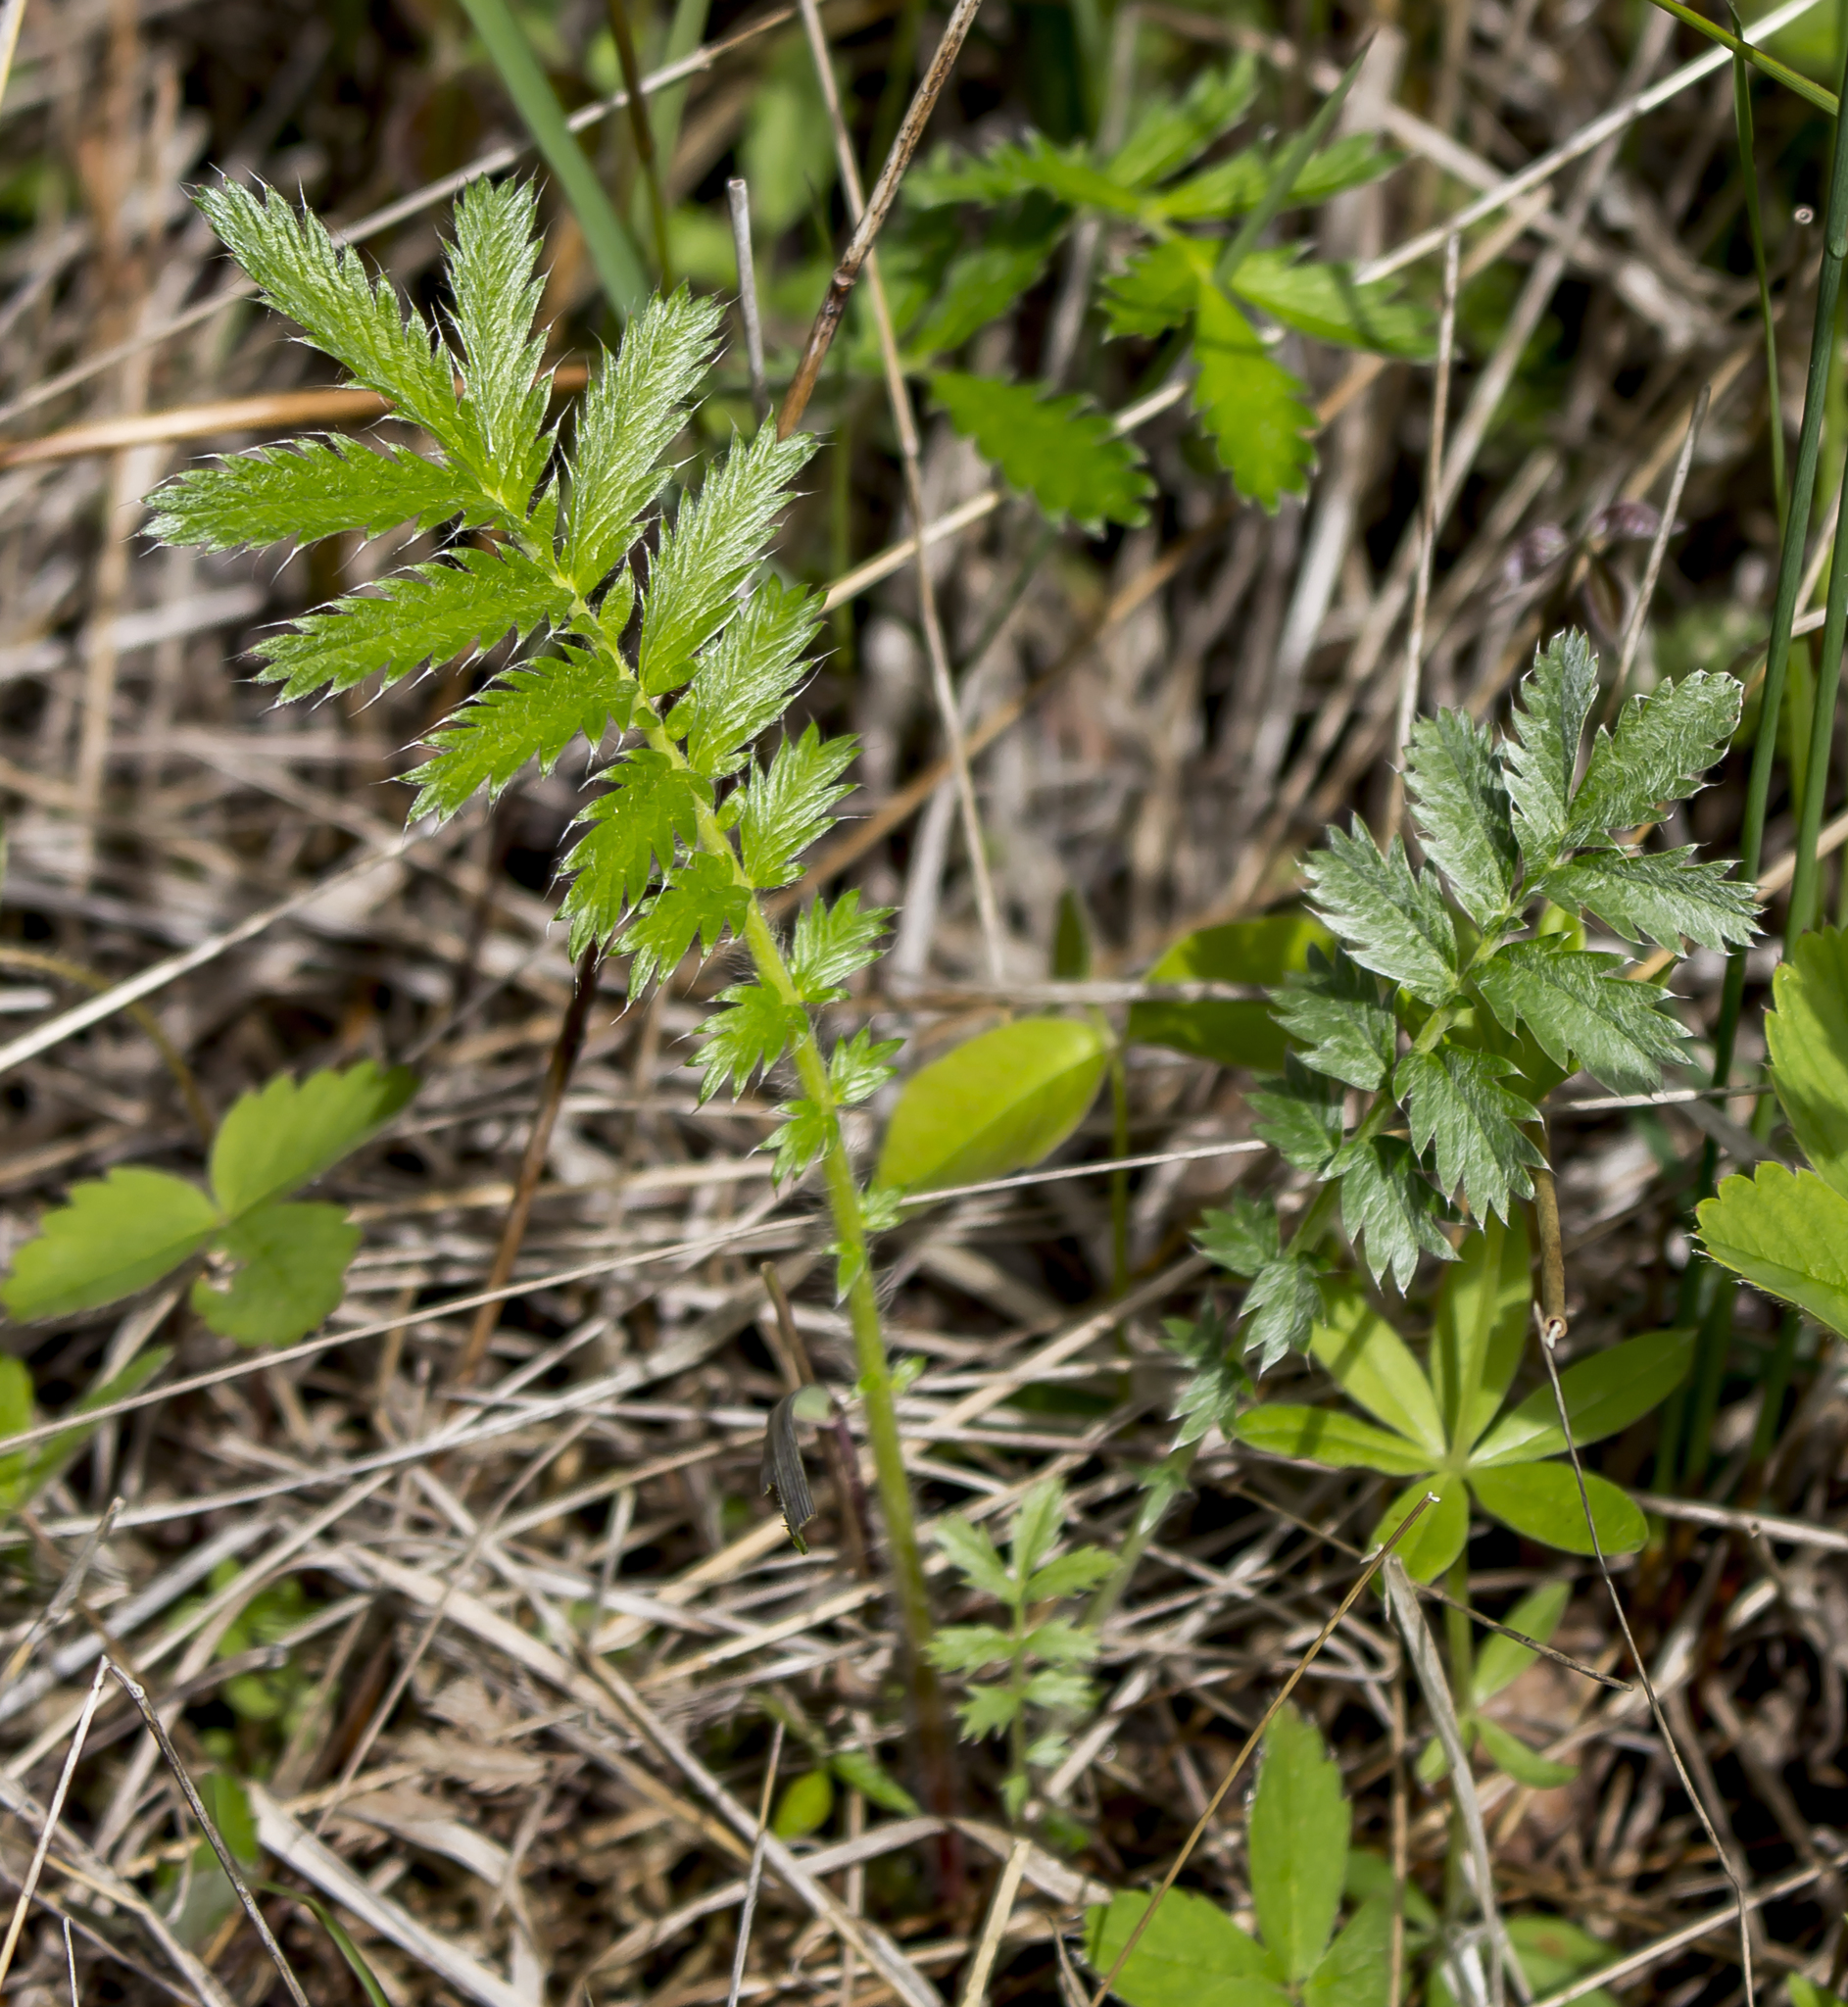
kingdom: Plantae
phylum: Tracheophyta
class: Magnoliopsida
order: Rosales
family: Rosaceae
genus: Argentina
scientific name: Argentina anserina
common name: Common silverweed
